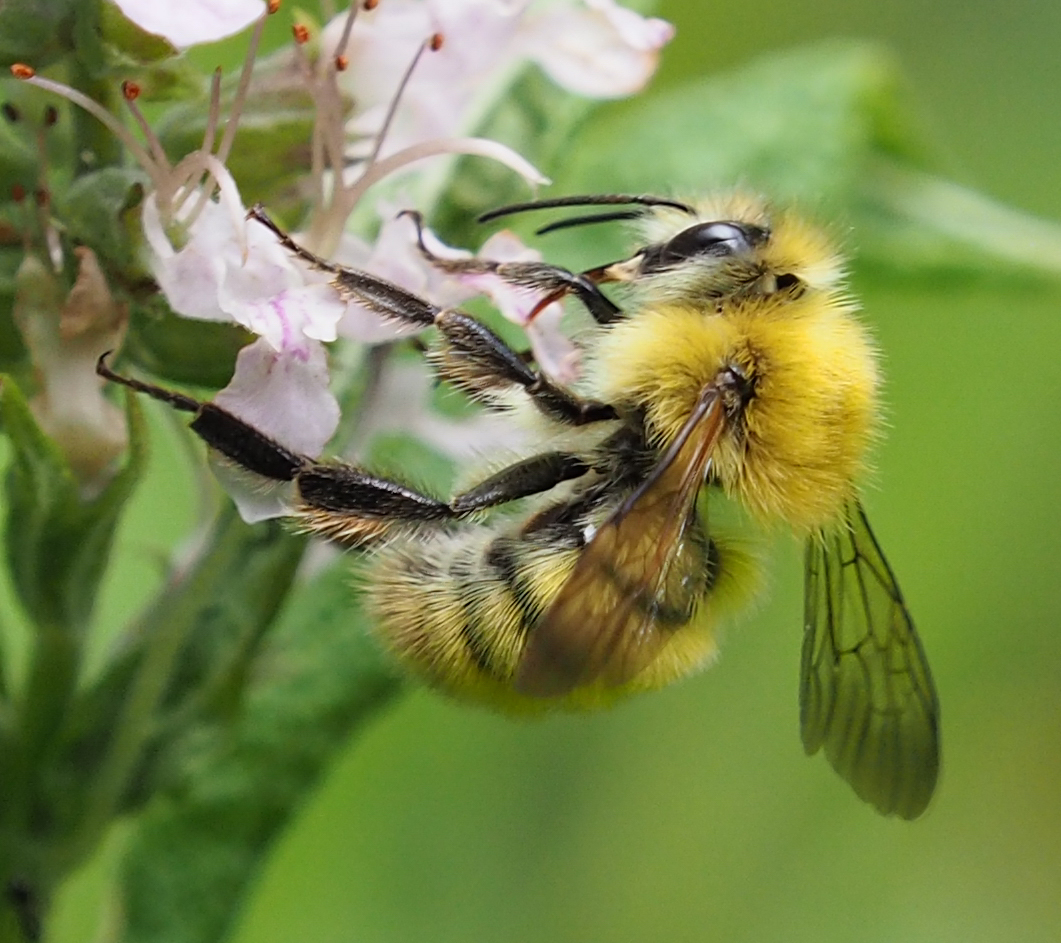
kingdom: Animalia
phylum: Arthropoda
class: Insecta
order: Hymenoptera
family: Apidae
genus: Bombus
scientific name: Bombus perplexus
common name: Confusing bumble bee
